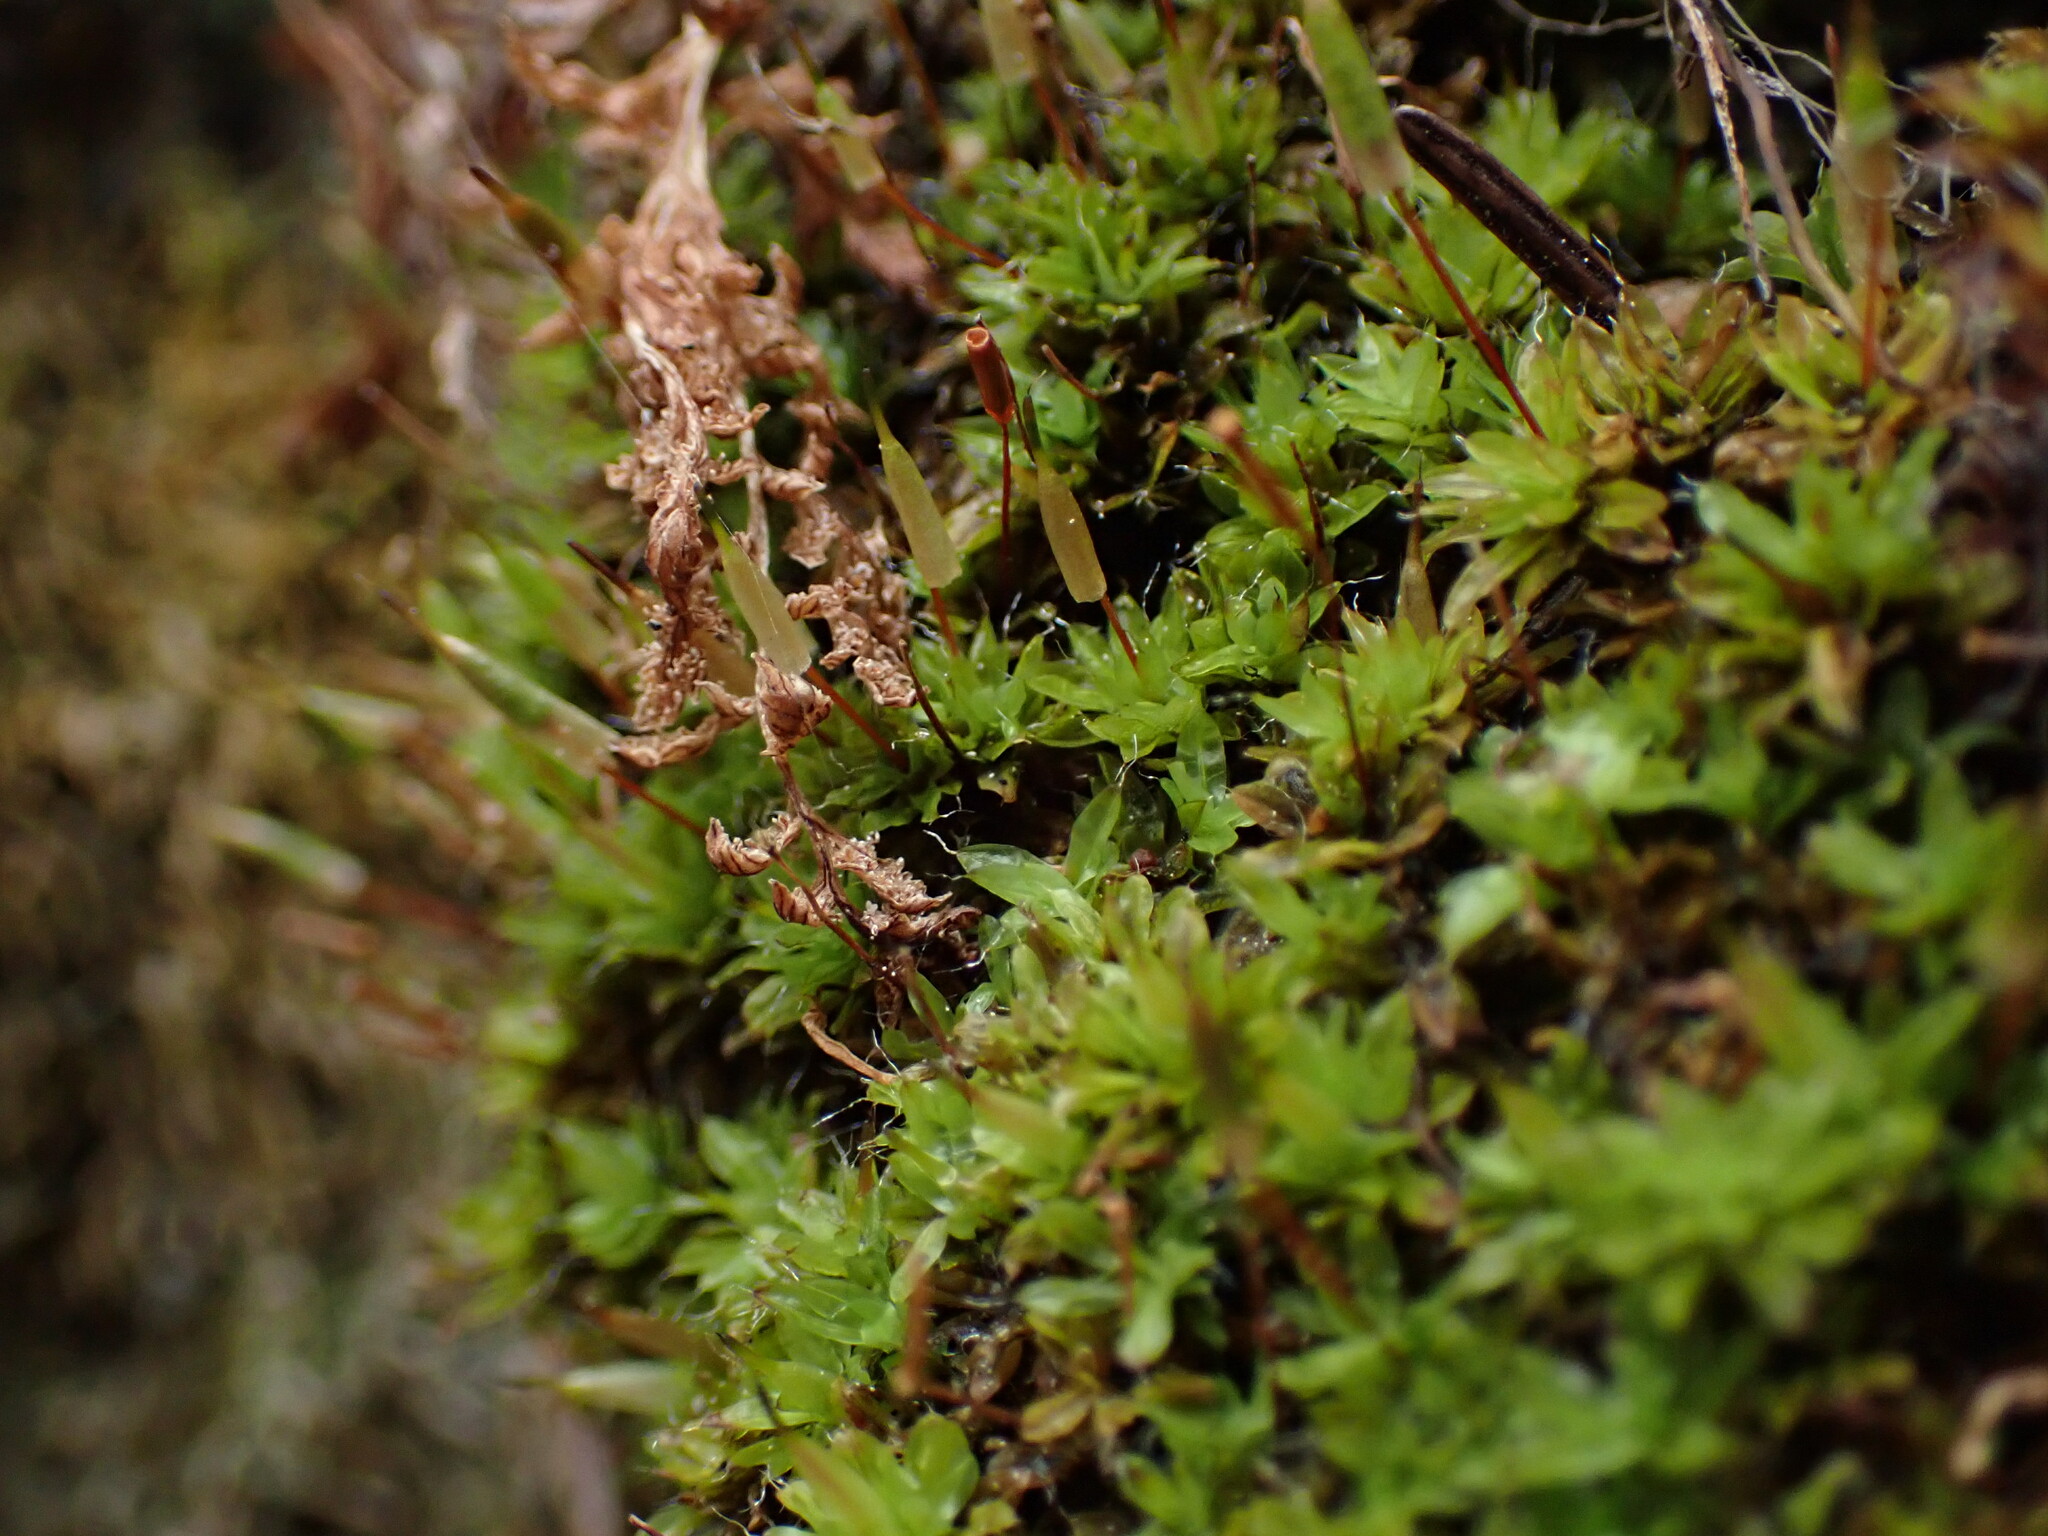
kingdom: Plantae
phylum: Bryophyta
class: Bryopsida
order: Encalyptales
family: Encalyptaceae
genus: Encalypta
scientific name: Encalypta rhaptocarpa
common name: Ribbed extinguisher moss
